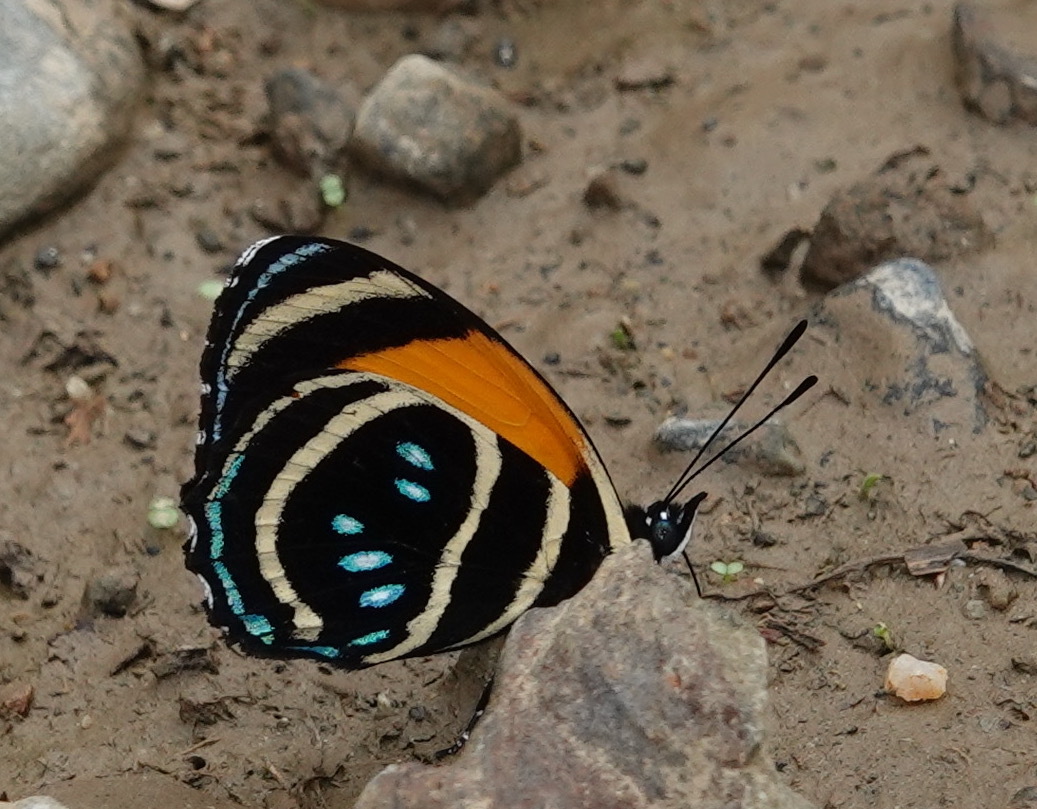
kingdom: Animalia
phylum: Arthropoda
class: Insecta
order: Lepidoptera
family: Nymphalidae
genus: Catagramma
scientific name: Catagramma Callicore lyca
